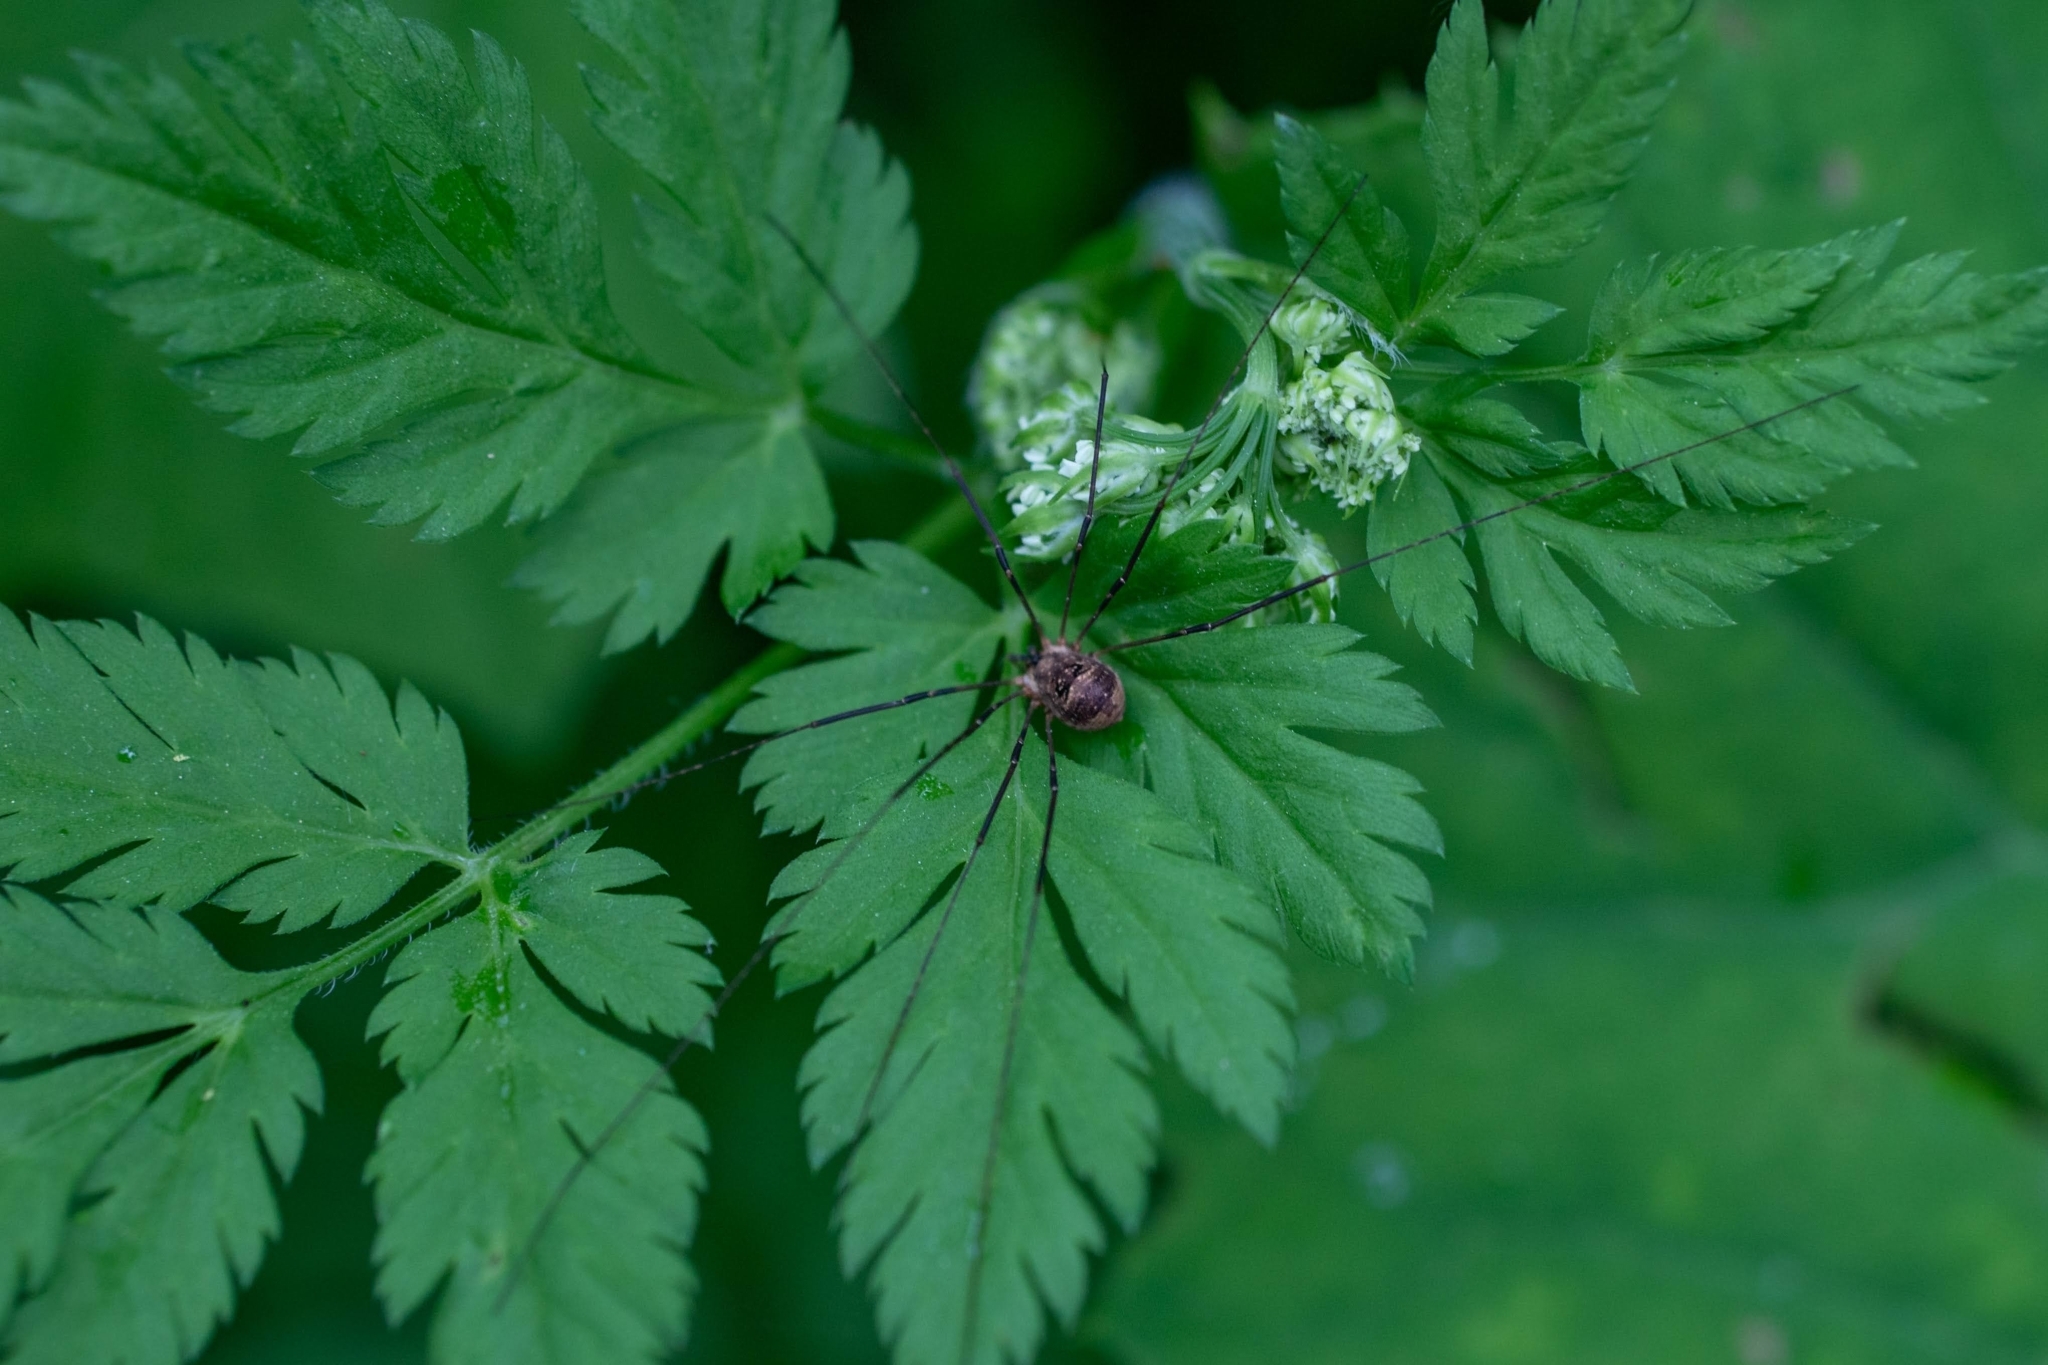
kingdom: Animalia
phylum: Arthropoda
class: Arachnida
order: Opiliones
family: Phalangiidae
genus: Amilenus
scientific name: Amilenus aurantiacus
